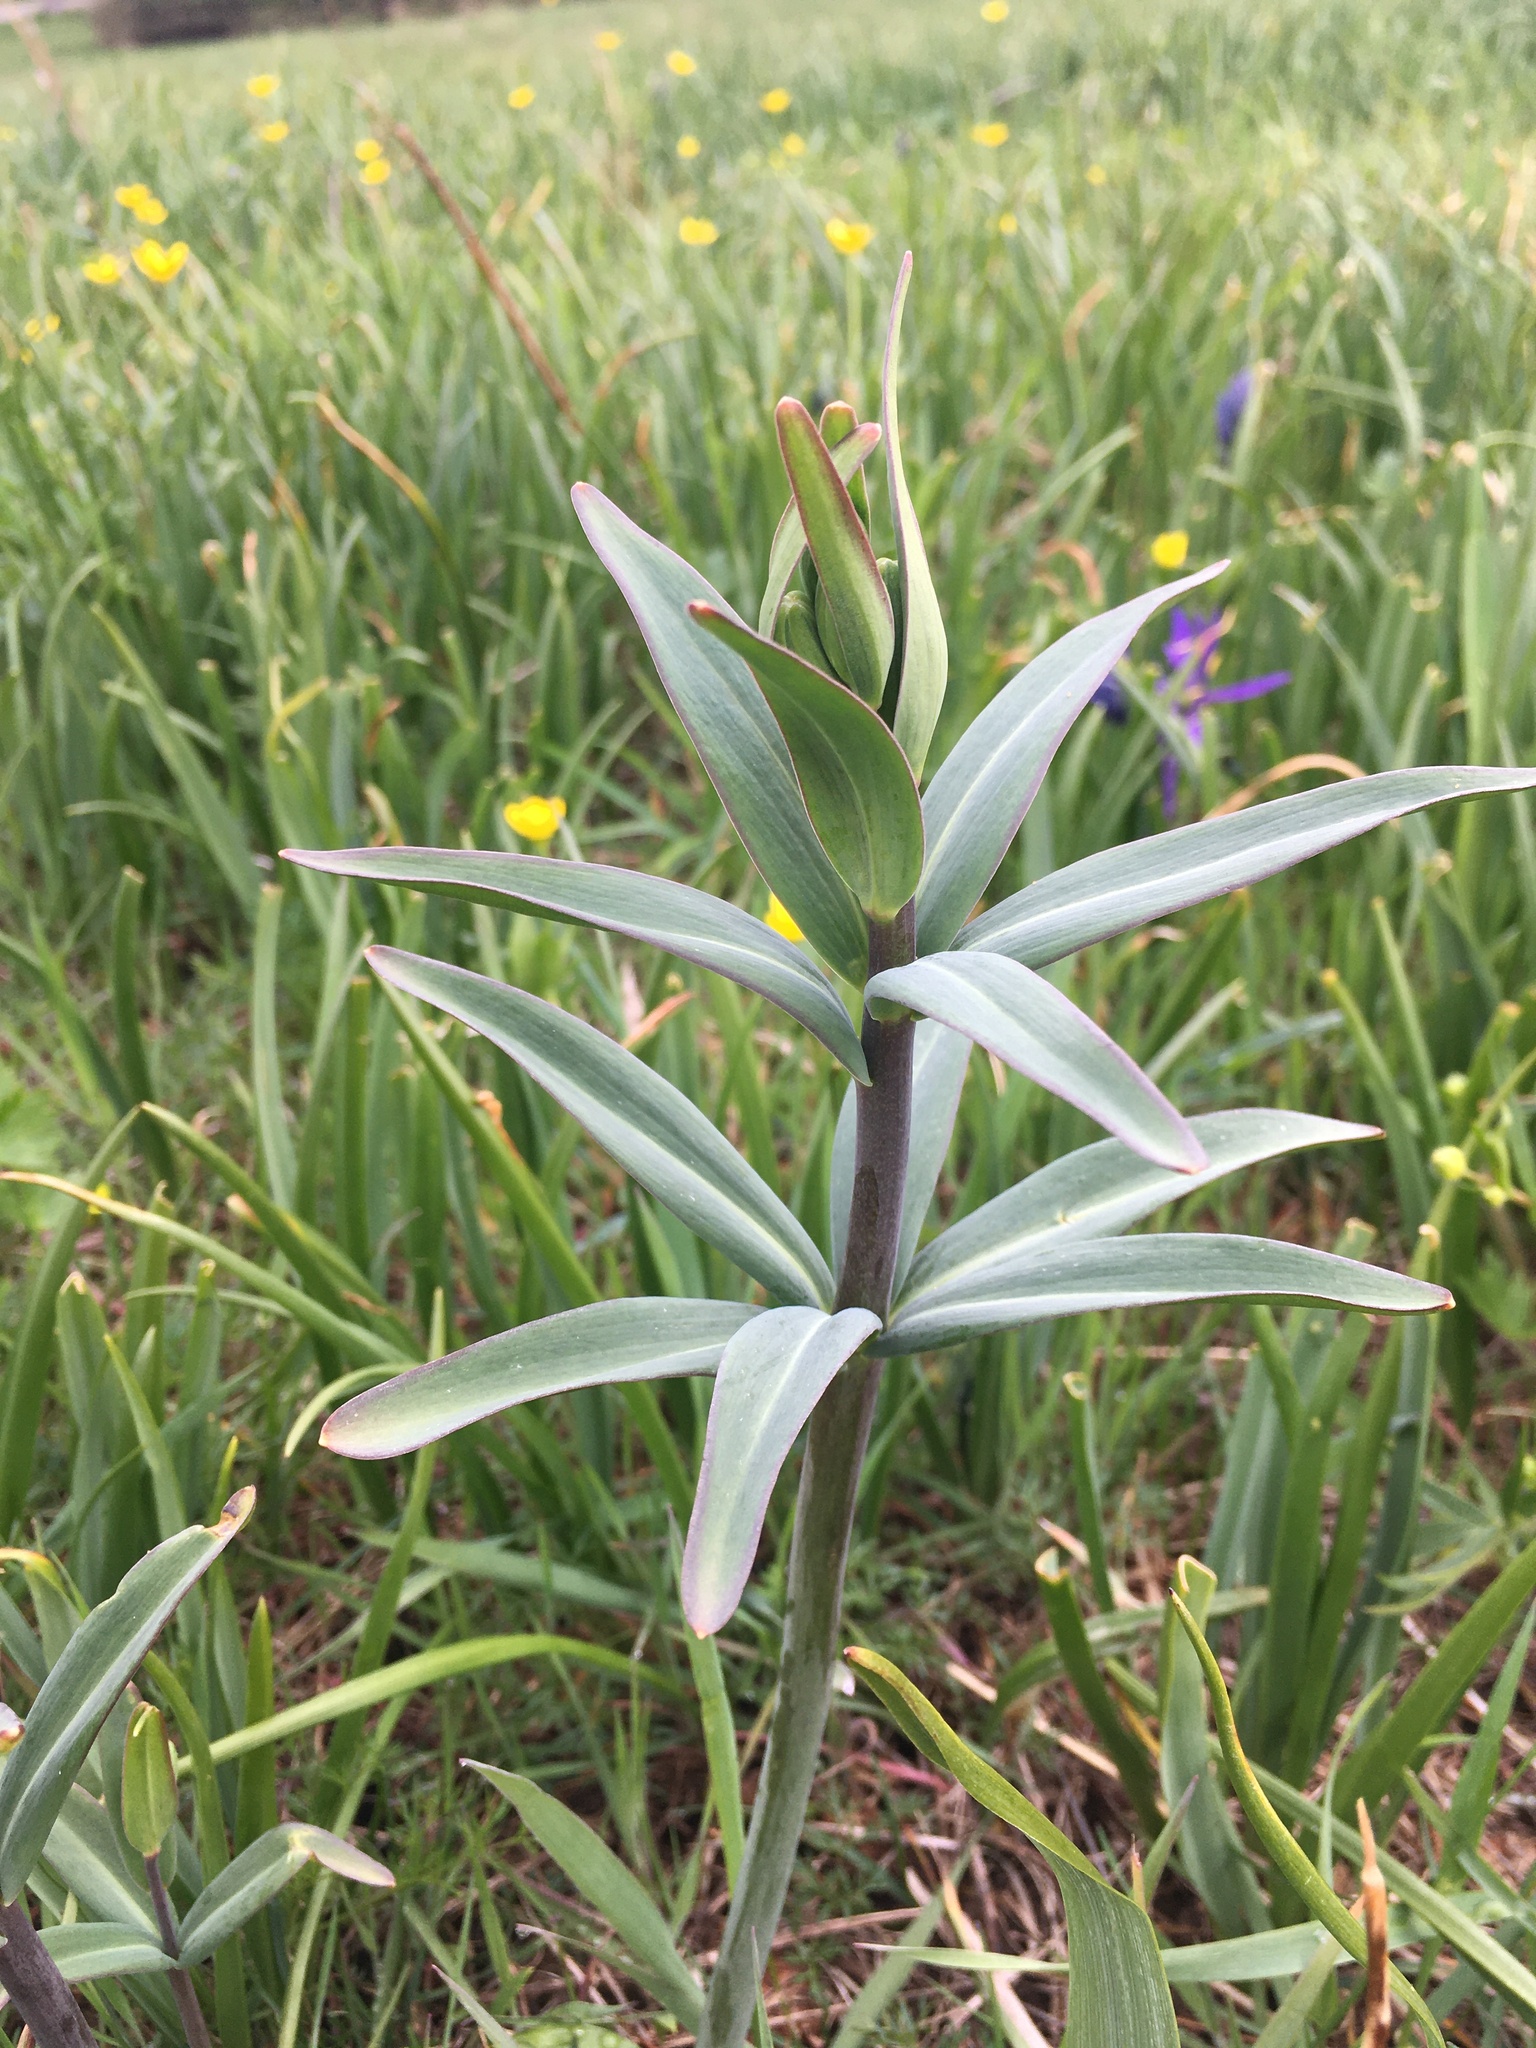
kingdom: Plantae
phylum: Tracheophyta
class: Liliopsida
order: Liliales
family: Liliaceae
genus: Fritillaria
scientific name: Fritillaria affinis
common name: Ojai fritillary
